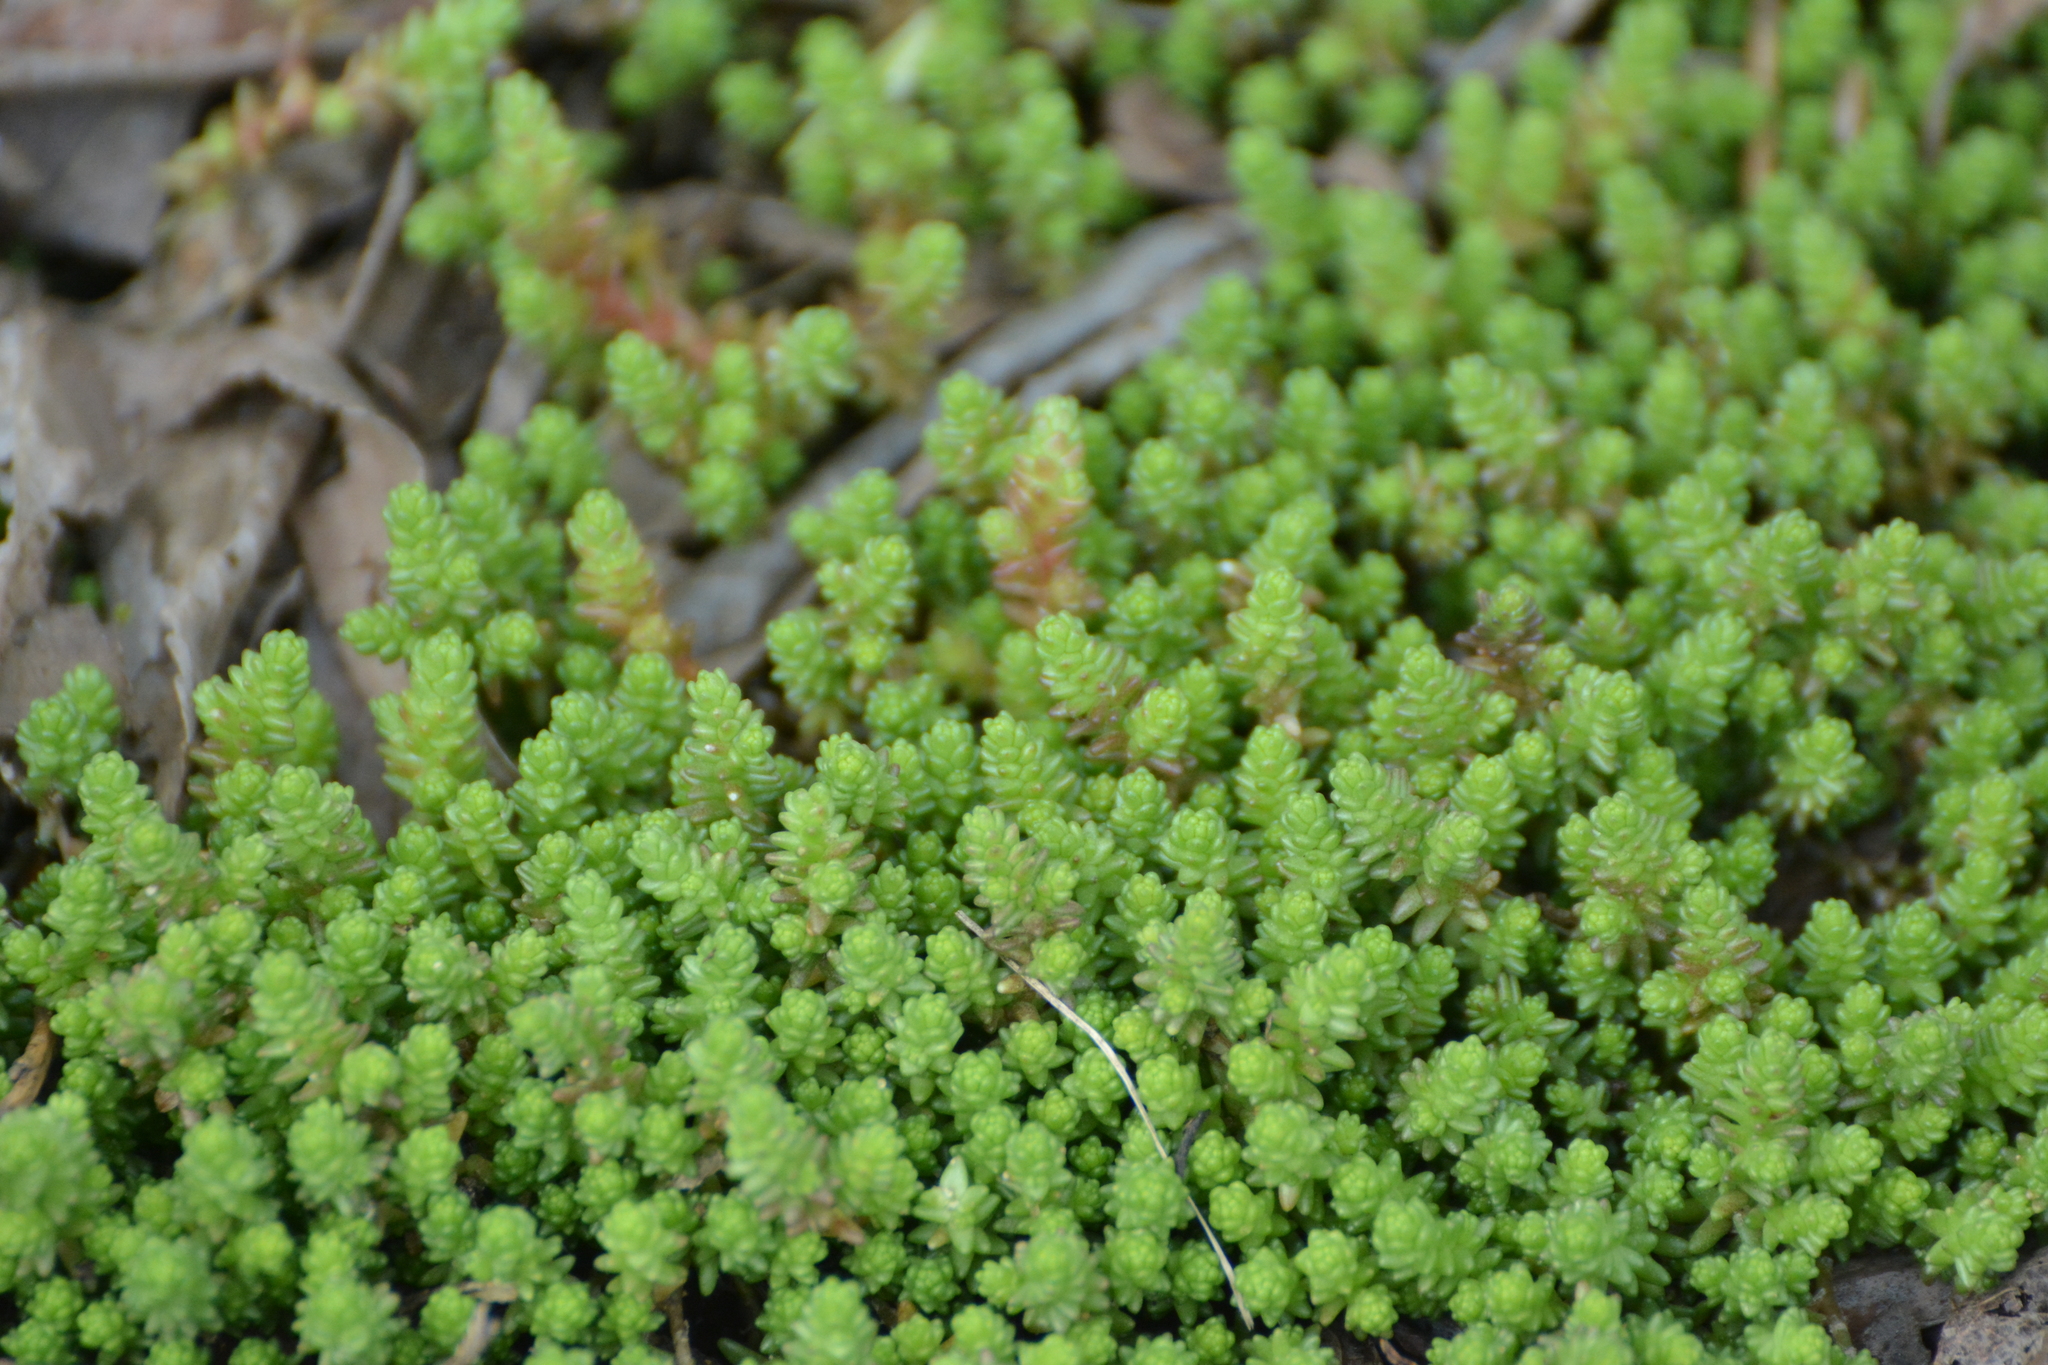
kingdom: Plantae
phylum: Tracheophyta
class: Magnoliopsida
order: Saxifragales
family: Crassulaceae
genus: Sedum
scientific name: Sedum acre
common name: Biting stonecrop
